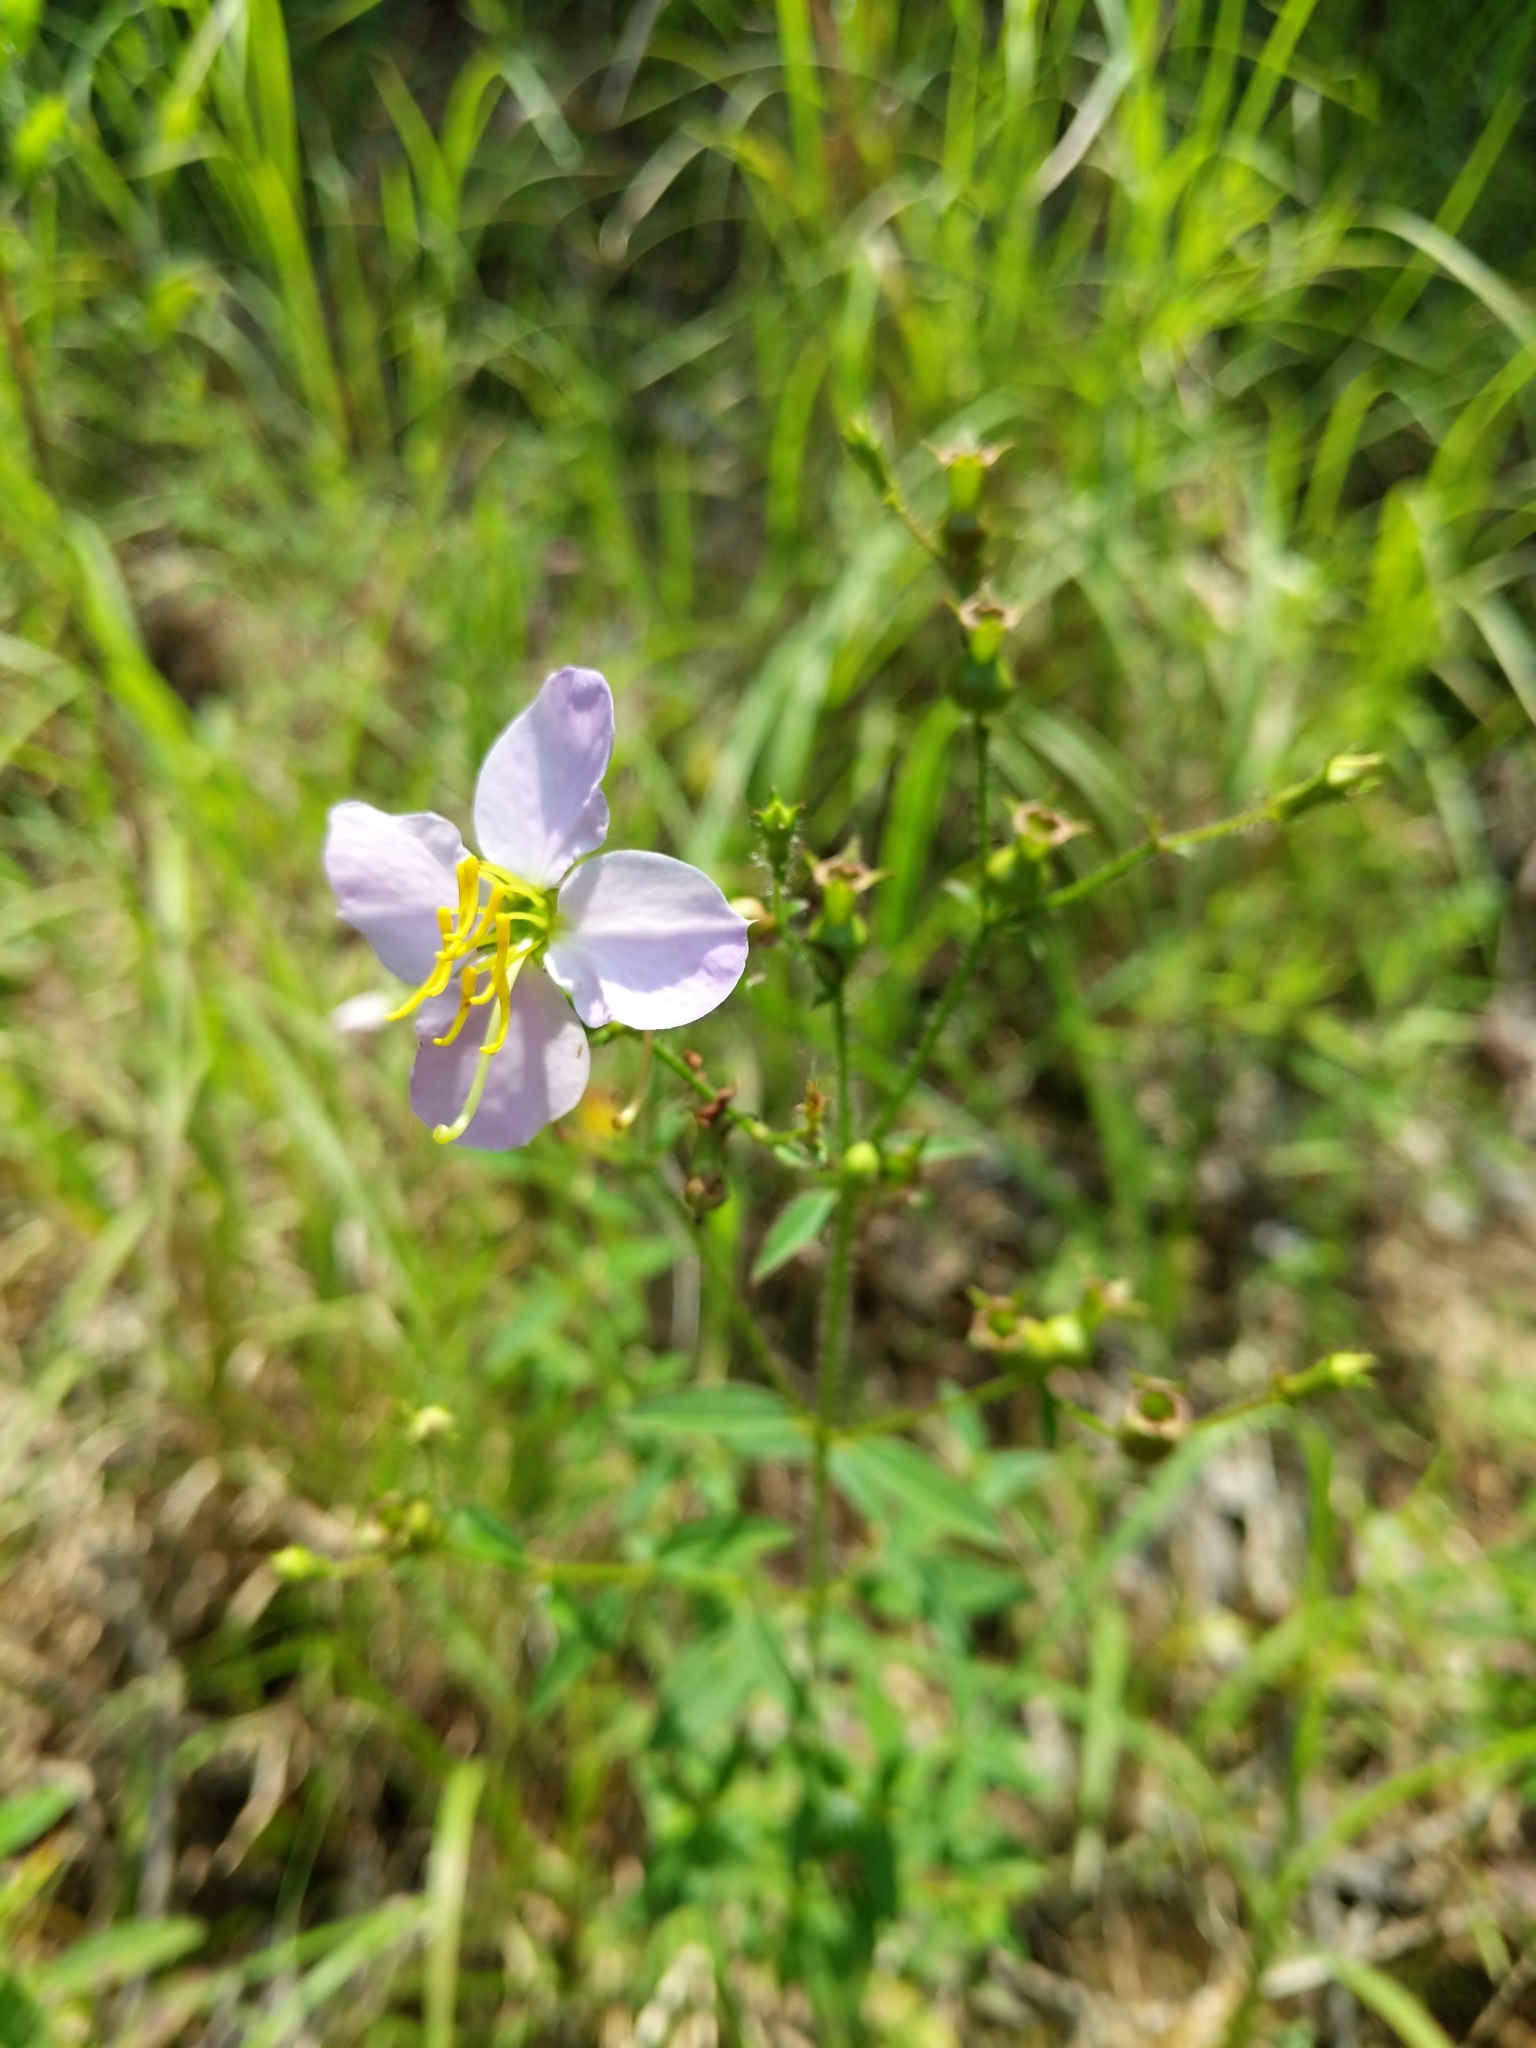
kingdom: Plantae
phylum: Tracheophyta
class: Magnoliopsida
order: Myrtales
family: Melastomataceae
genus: Rhexia
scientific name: Rhexia mariana
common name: Dull meadow-pitcher
